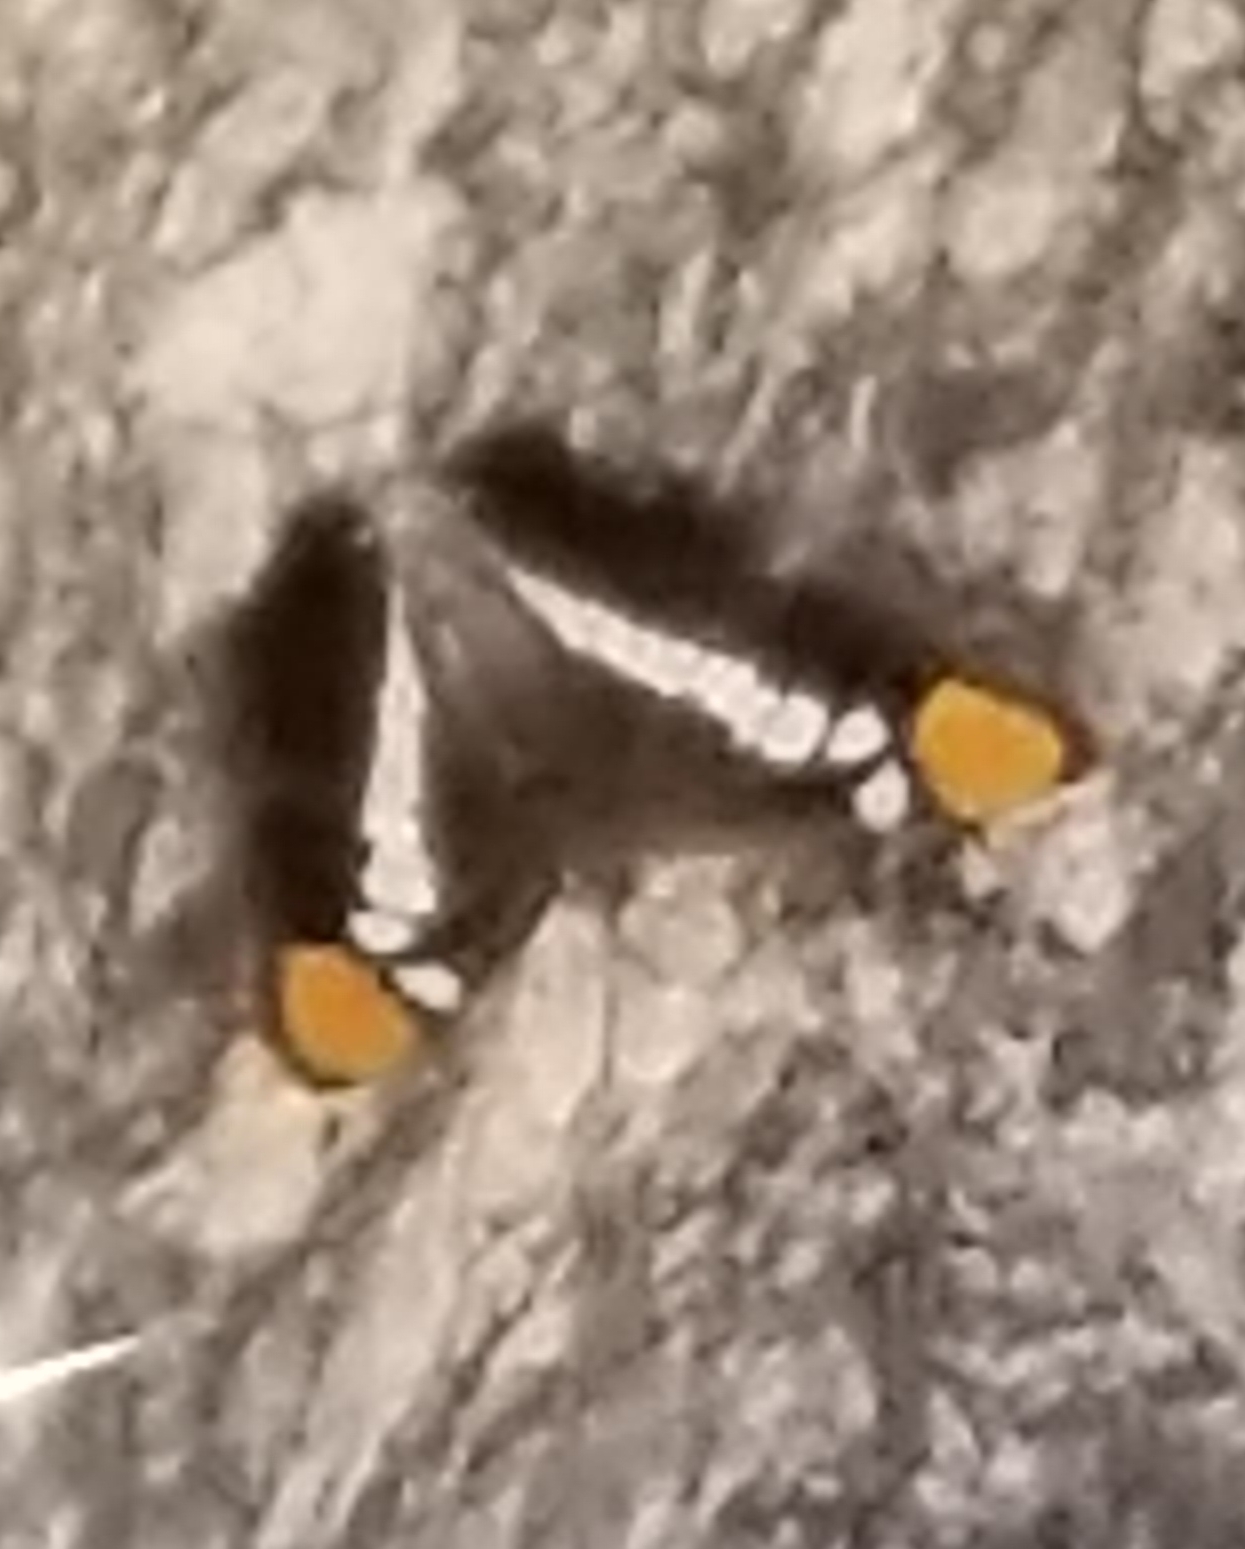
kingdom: Animalia
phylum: Arthropoda
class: Insecta
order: Lepidoptera
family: Nymphalidae
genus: Limenitis
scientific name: Limenitis bredowii
